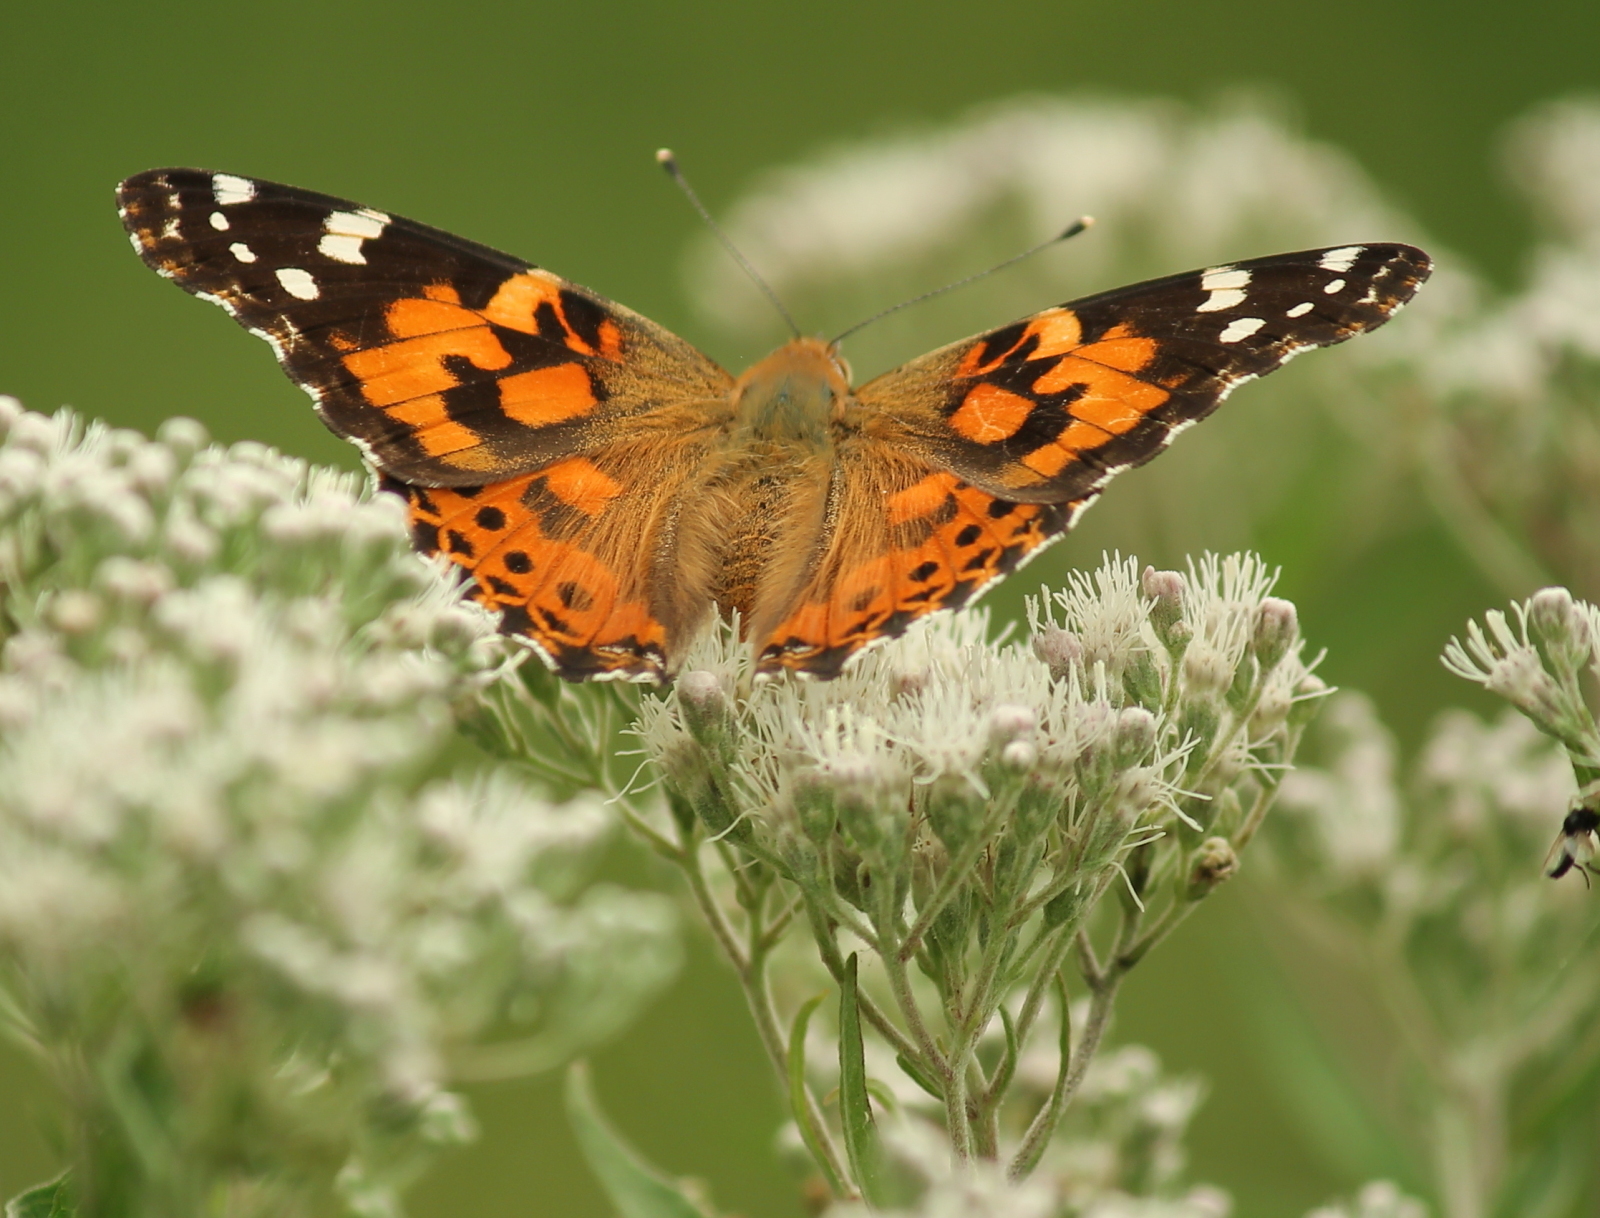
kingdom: Animalia
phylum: Arthropoda
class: Insecta
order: Lepidoptera
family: Nymphalidae
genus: Vanessa
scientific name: Vanessa cardui
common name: Painted lady
